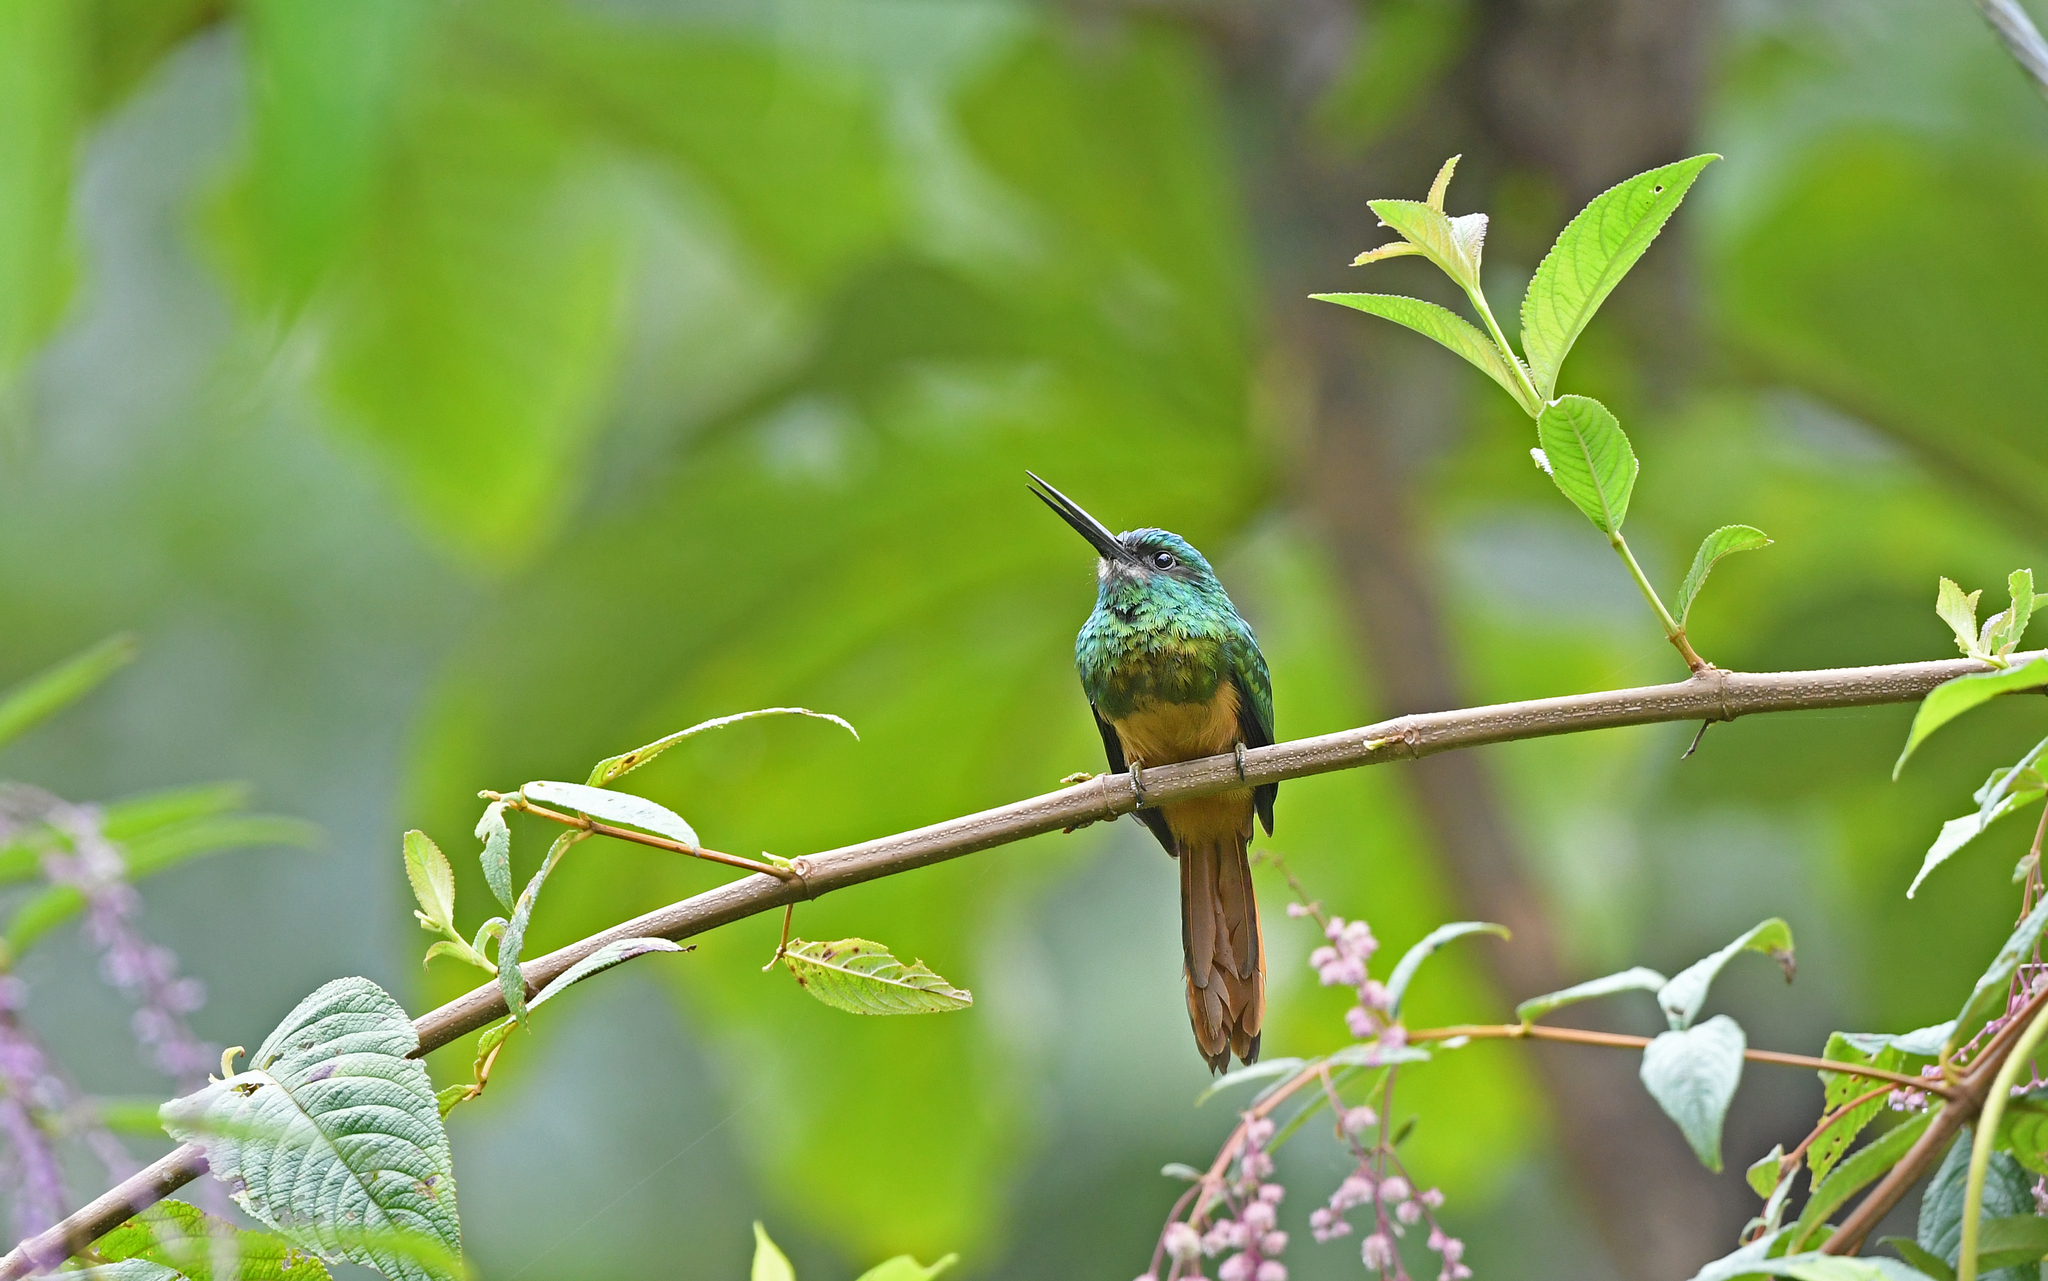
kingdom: Animalia
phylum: Chordata
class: Aves
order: Piciformes
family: Galbulidae
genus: Galbula
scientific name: Galbula cyanescens
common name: Bluish-fronted jacamar
